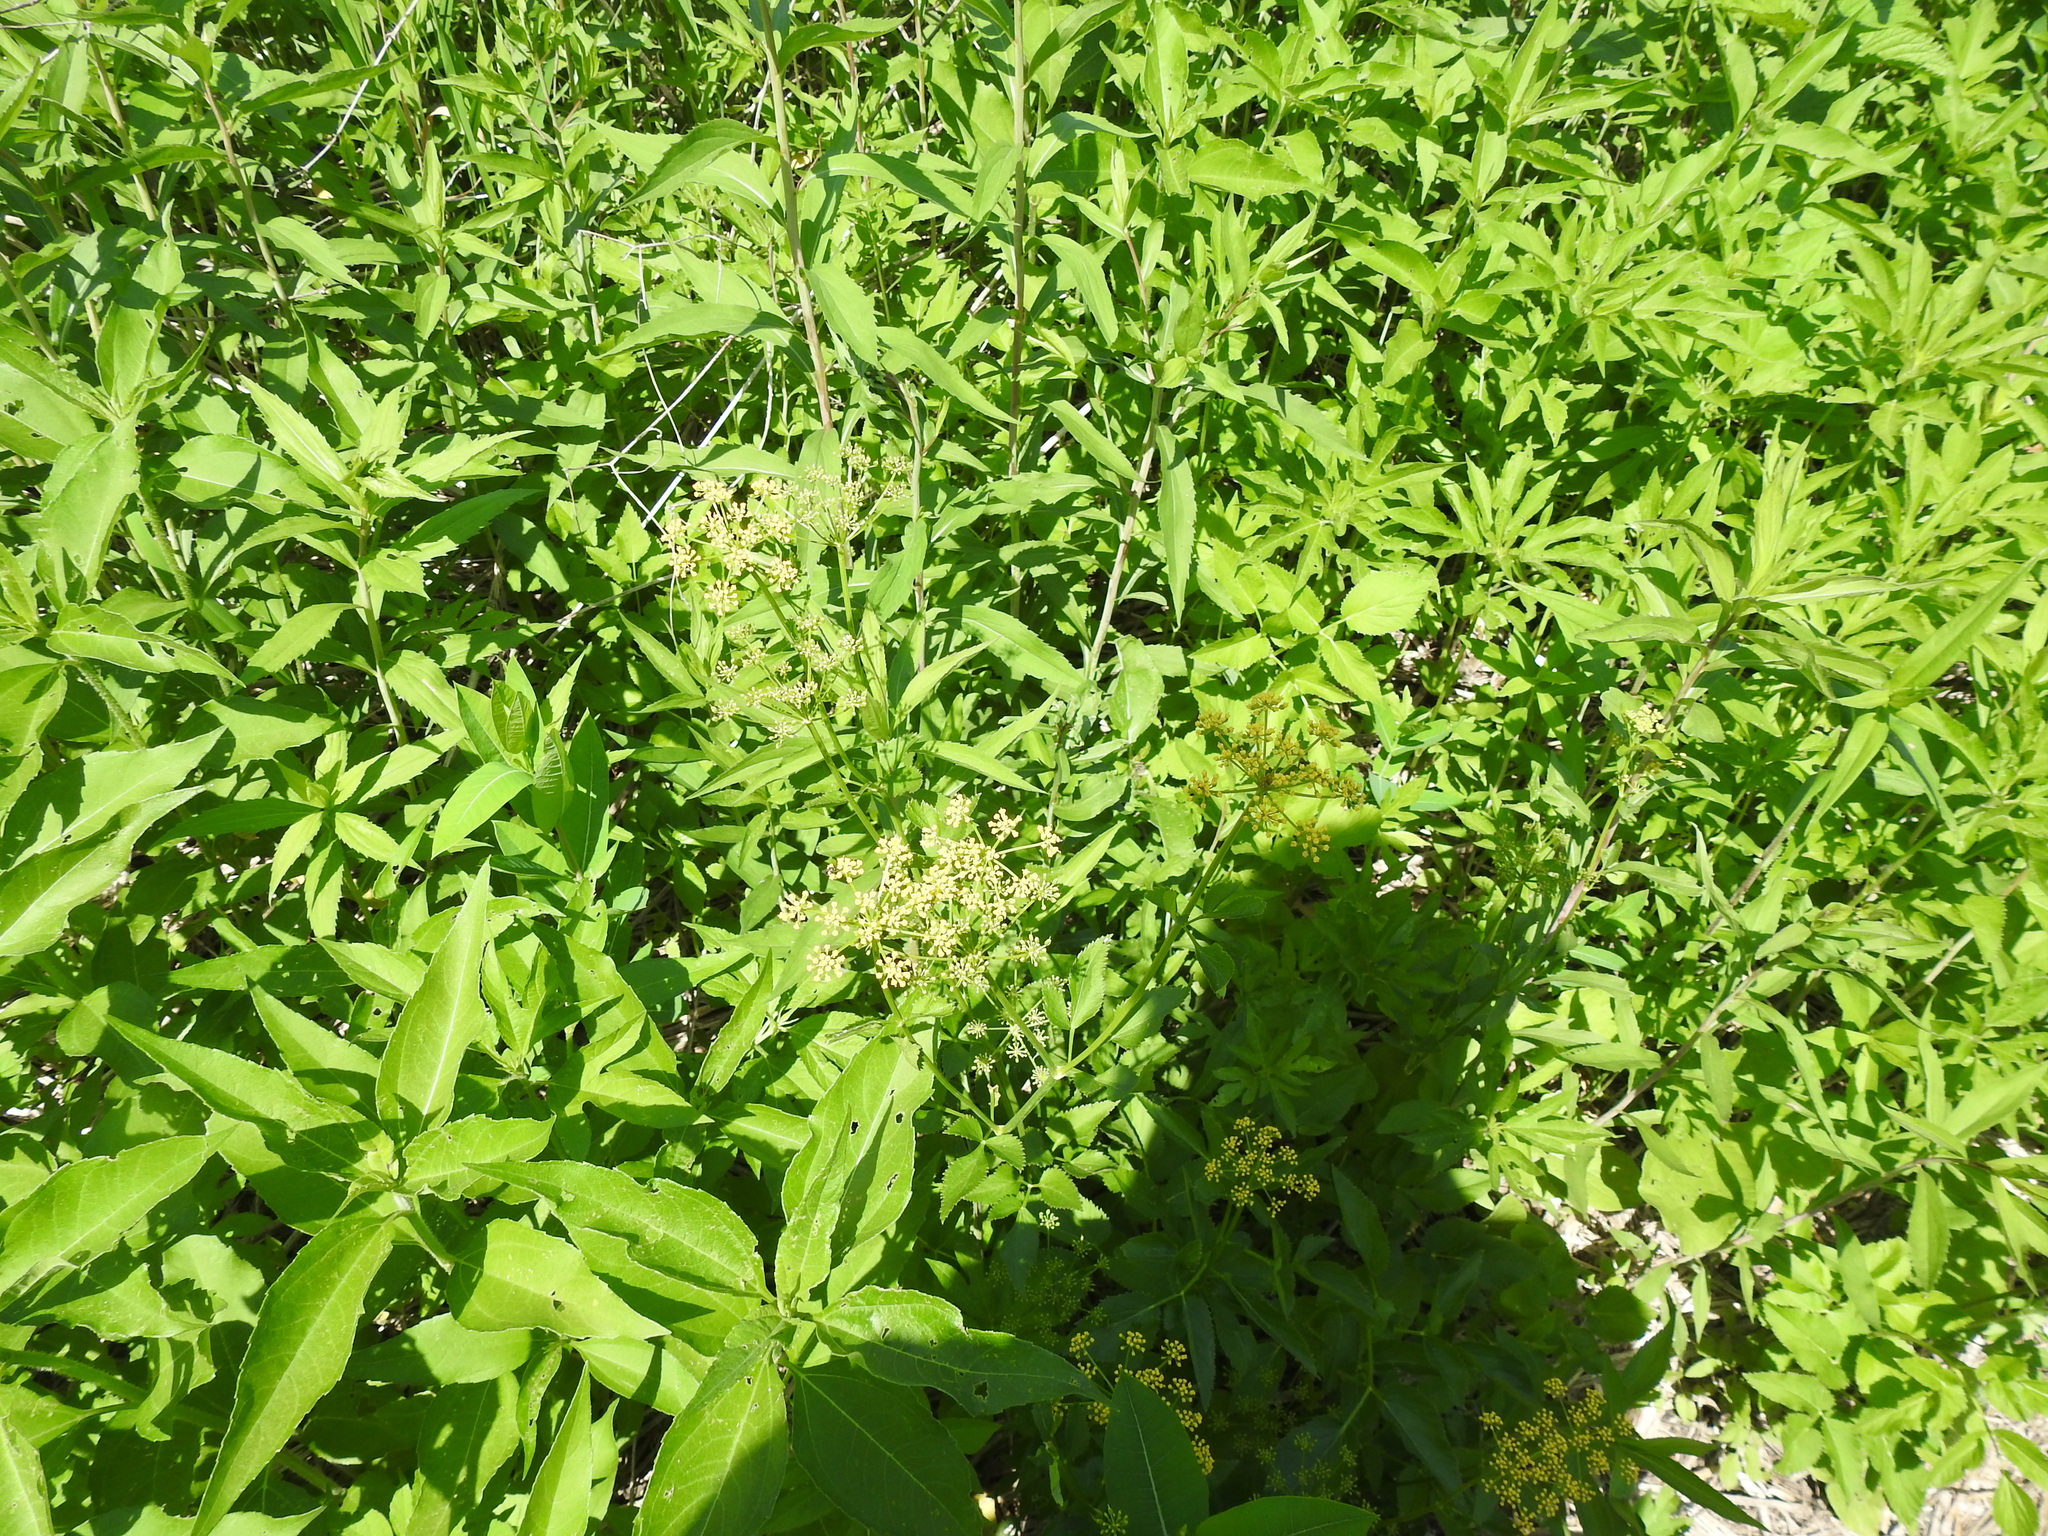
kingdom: Plantae
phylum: Tracheophyta
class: Magnoliopsida
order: Apiales
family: Apiaceae
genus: Zizia
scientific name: Zizia aurea
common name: Golden alexanders
